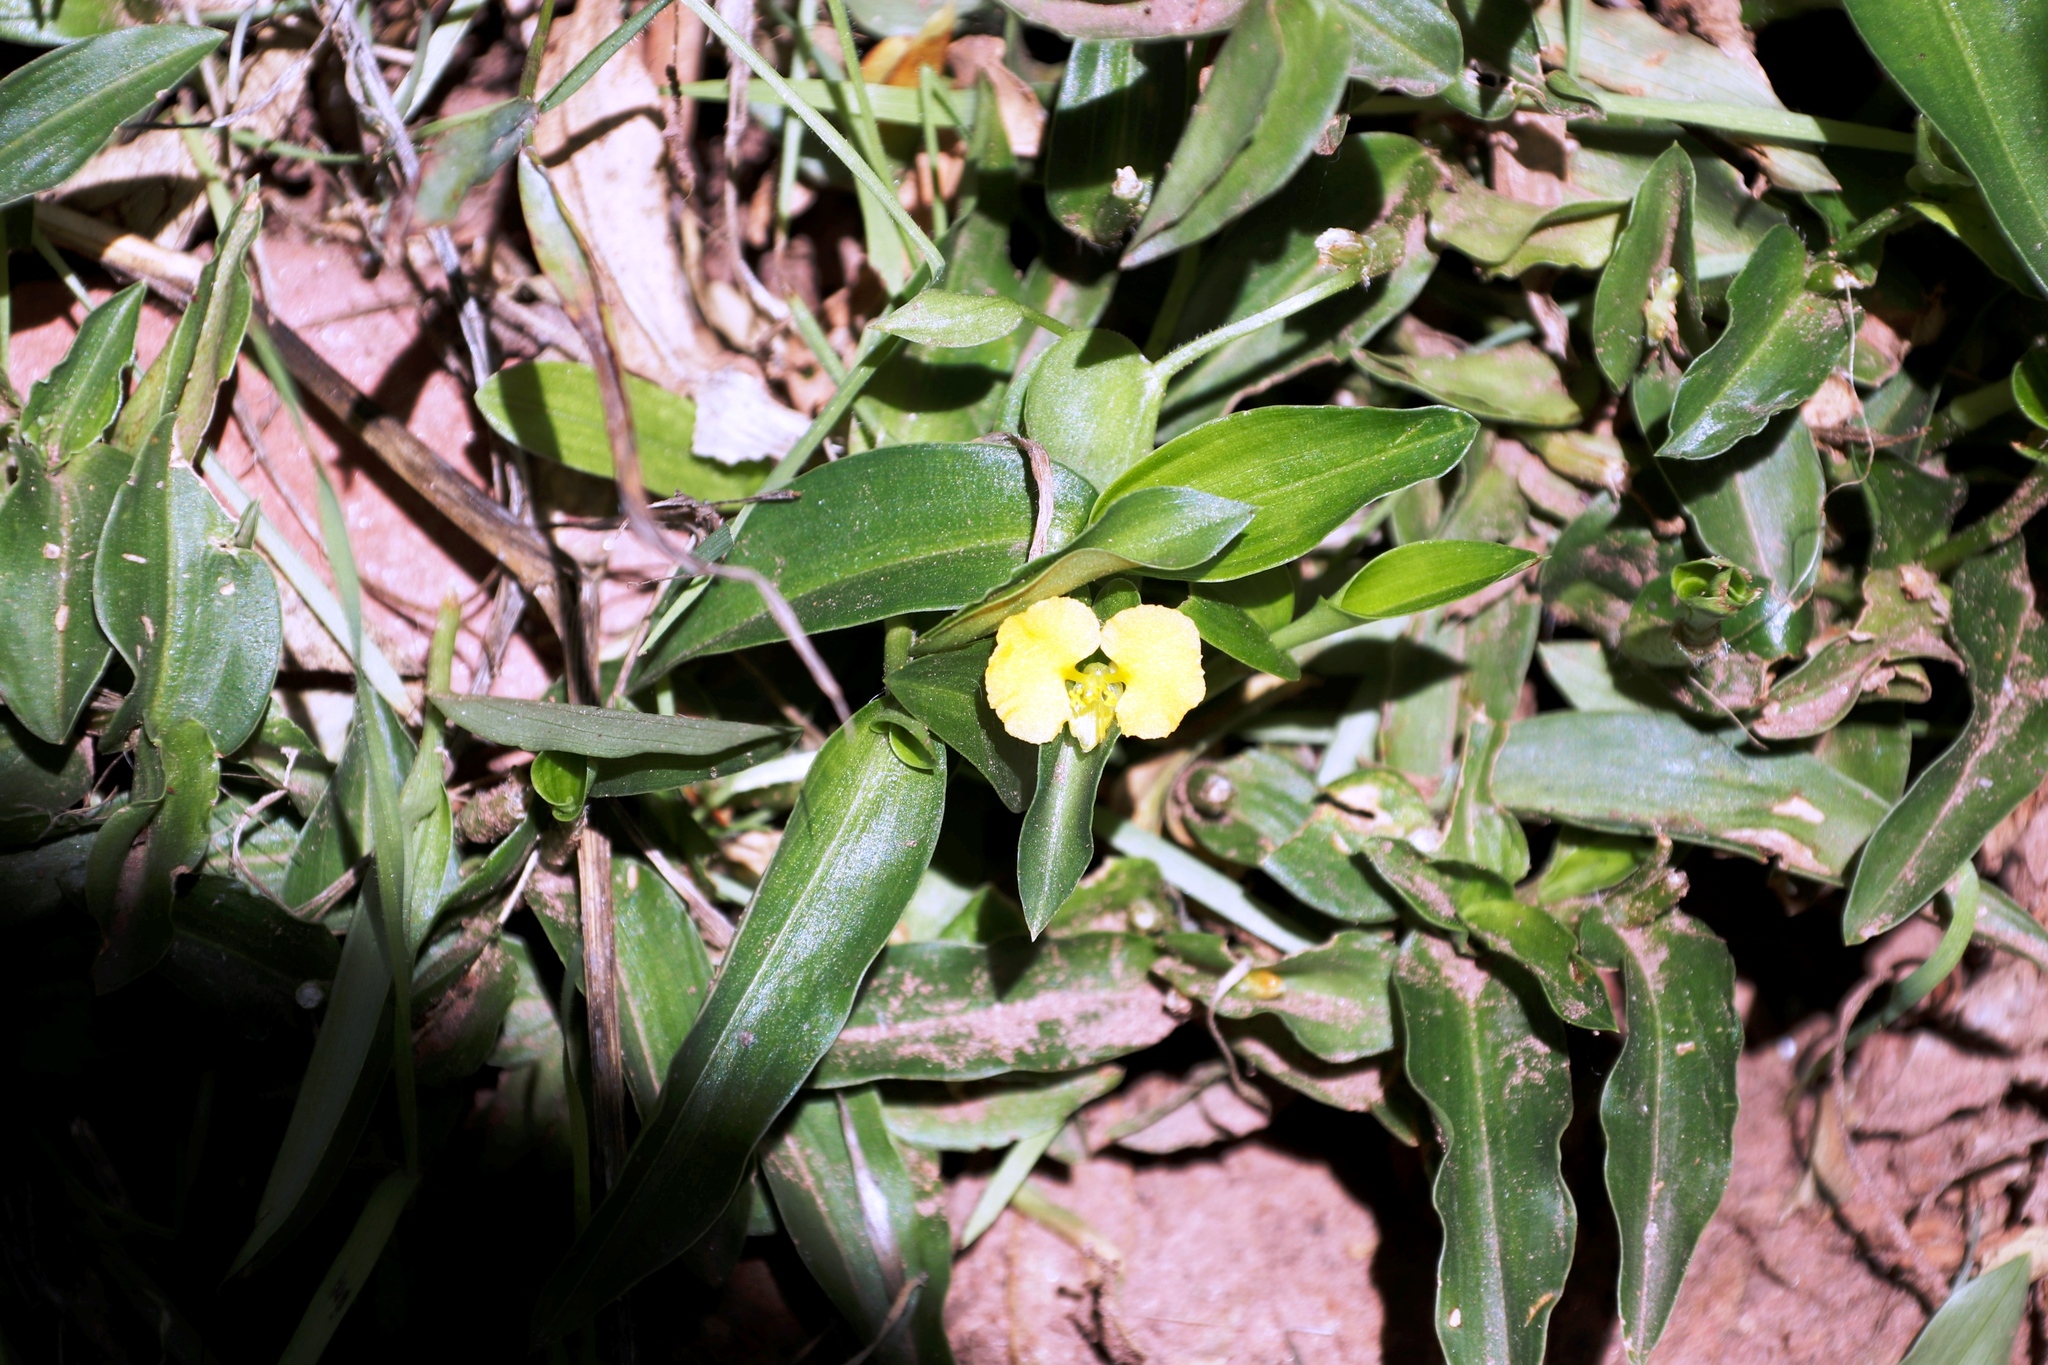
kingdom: Plantae
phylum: Tracheophyta
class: Liliopsida
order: Commelinales
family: Commelinaceae
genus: Commelina
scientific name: Commelina africana
